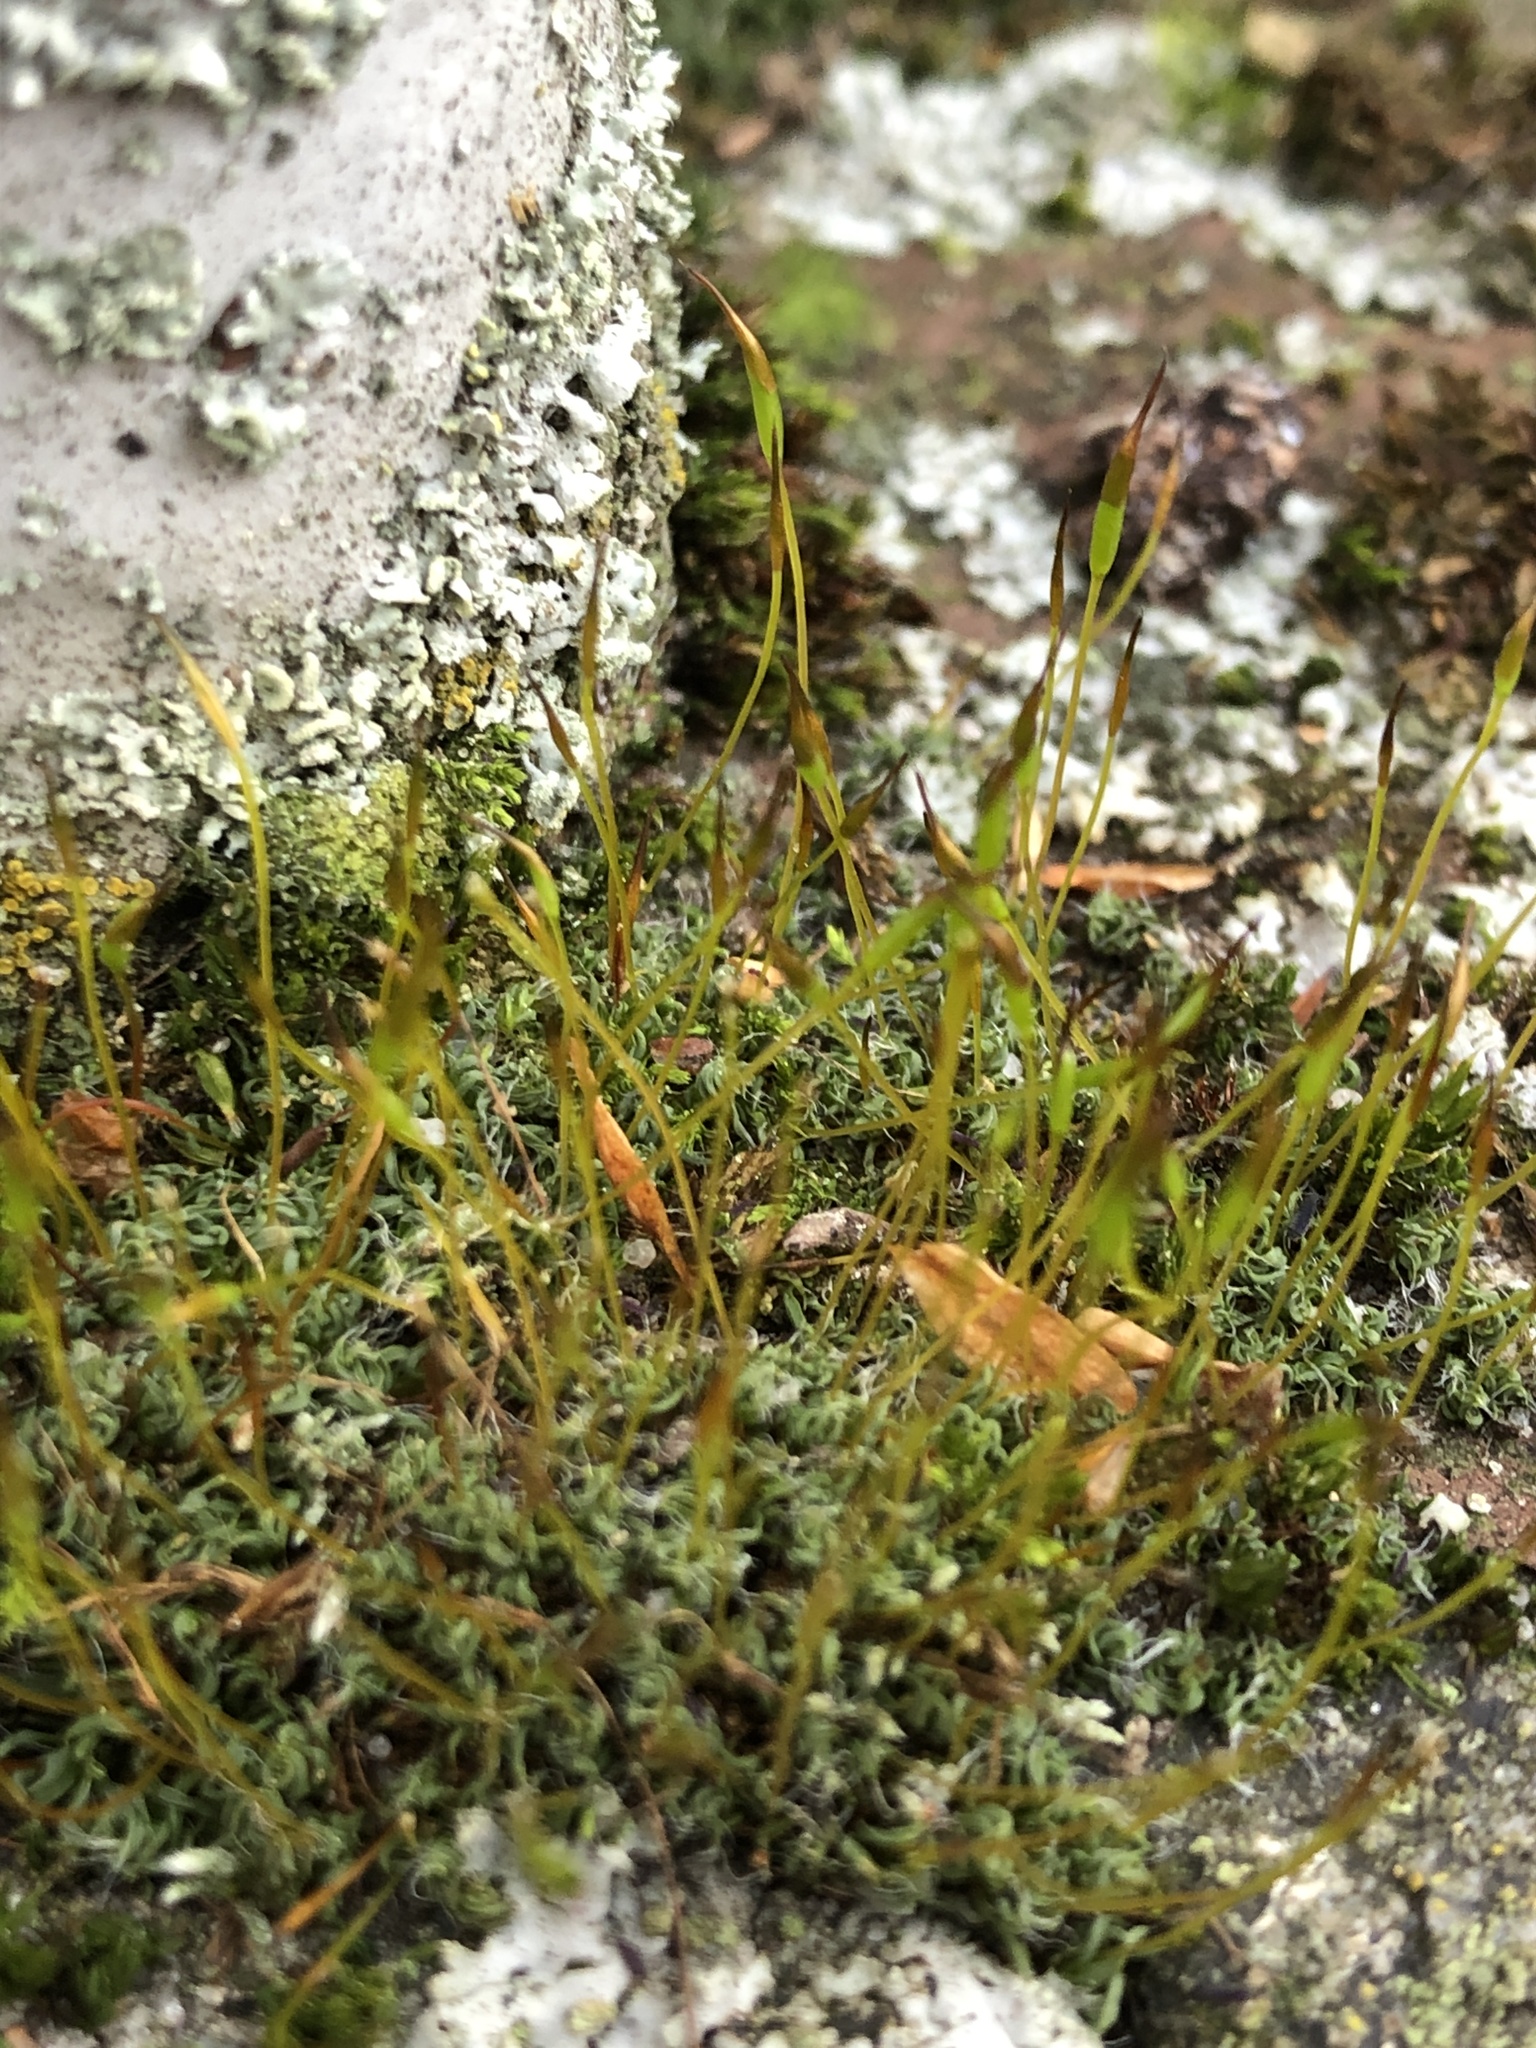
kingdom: Plantae
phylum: Bryophyta
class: Bryopsida
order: Pottiales
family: Pottiaceae
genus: Tortula
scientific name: Tortula muralis
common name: Wall screw-moss
